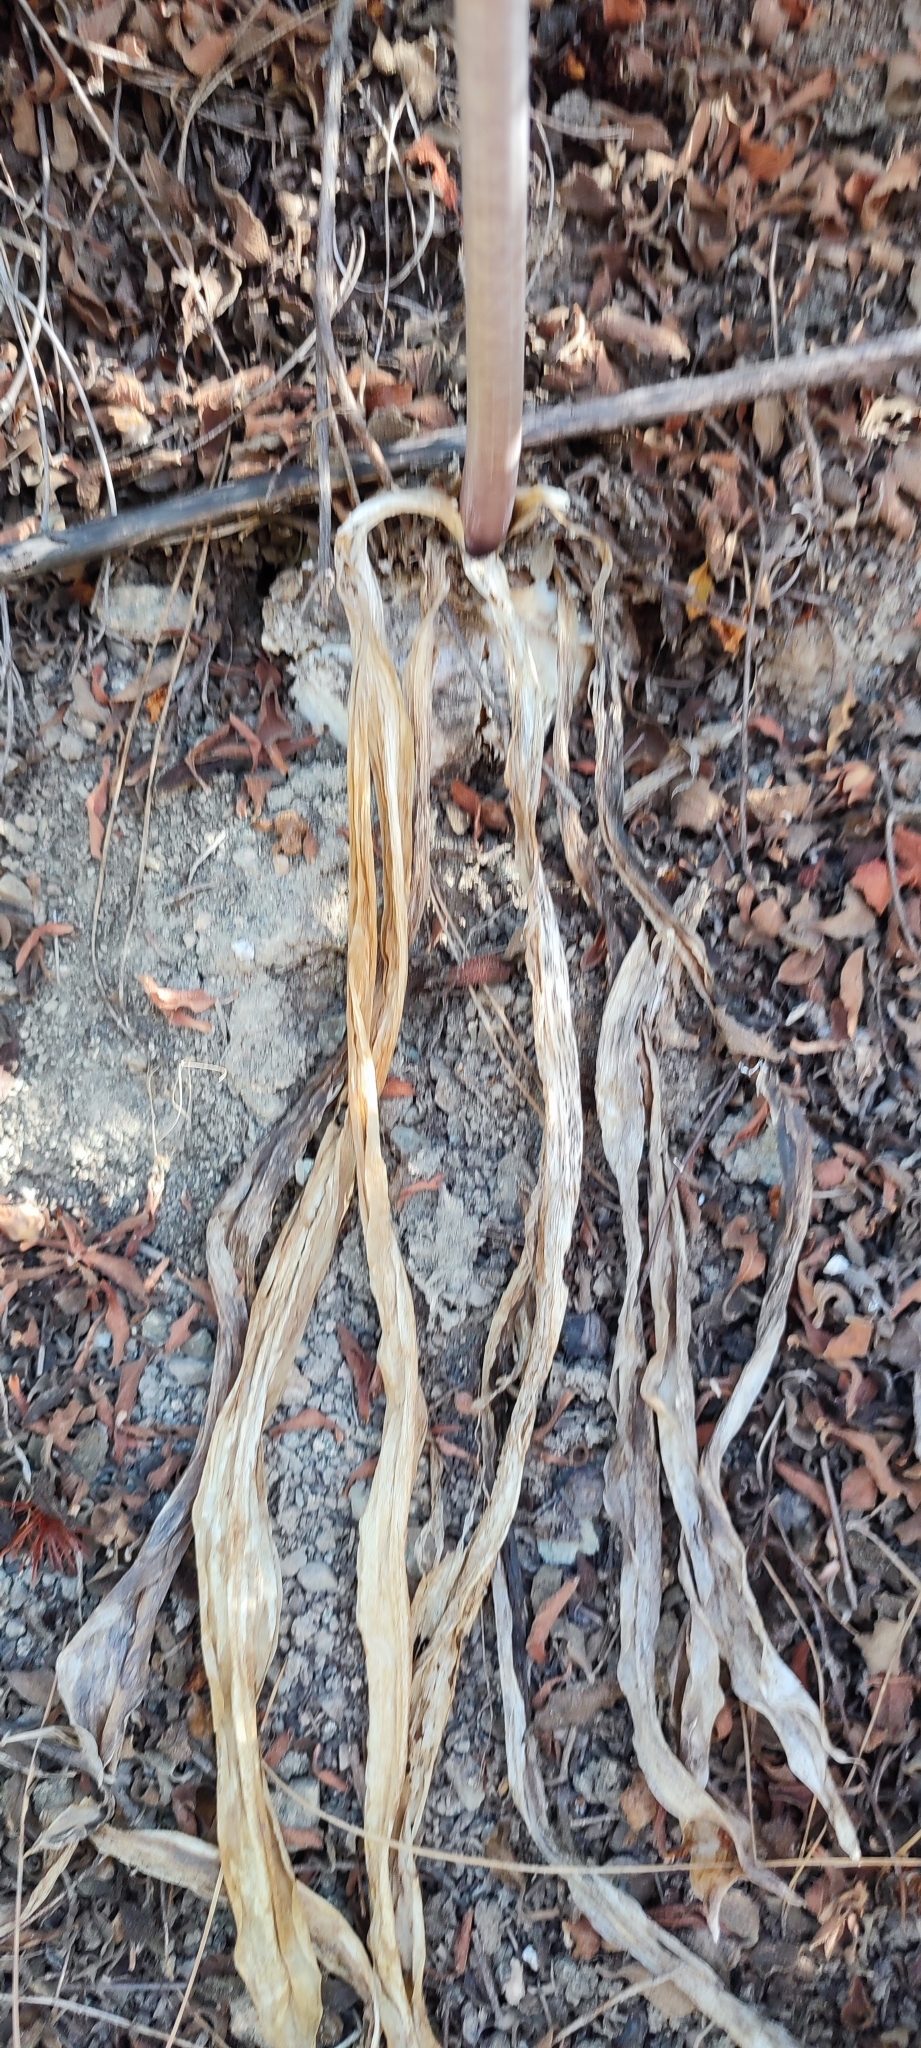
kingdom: Plantae
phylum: Tracheophyta
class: Liliopsida
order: Asparagales
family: Asparagaceae
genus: Drimia
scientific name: Drimia aphylla
